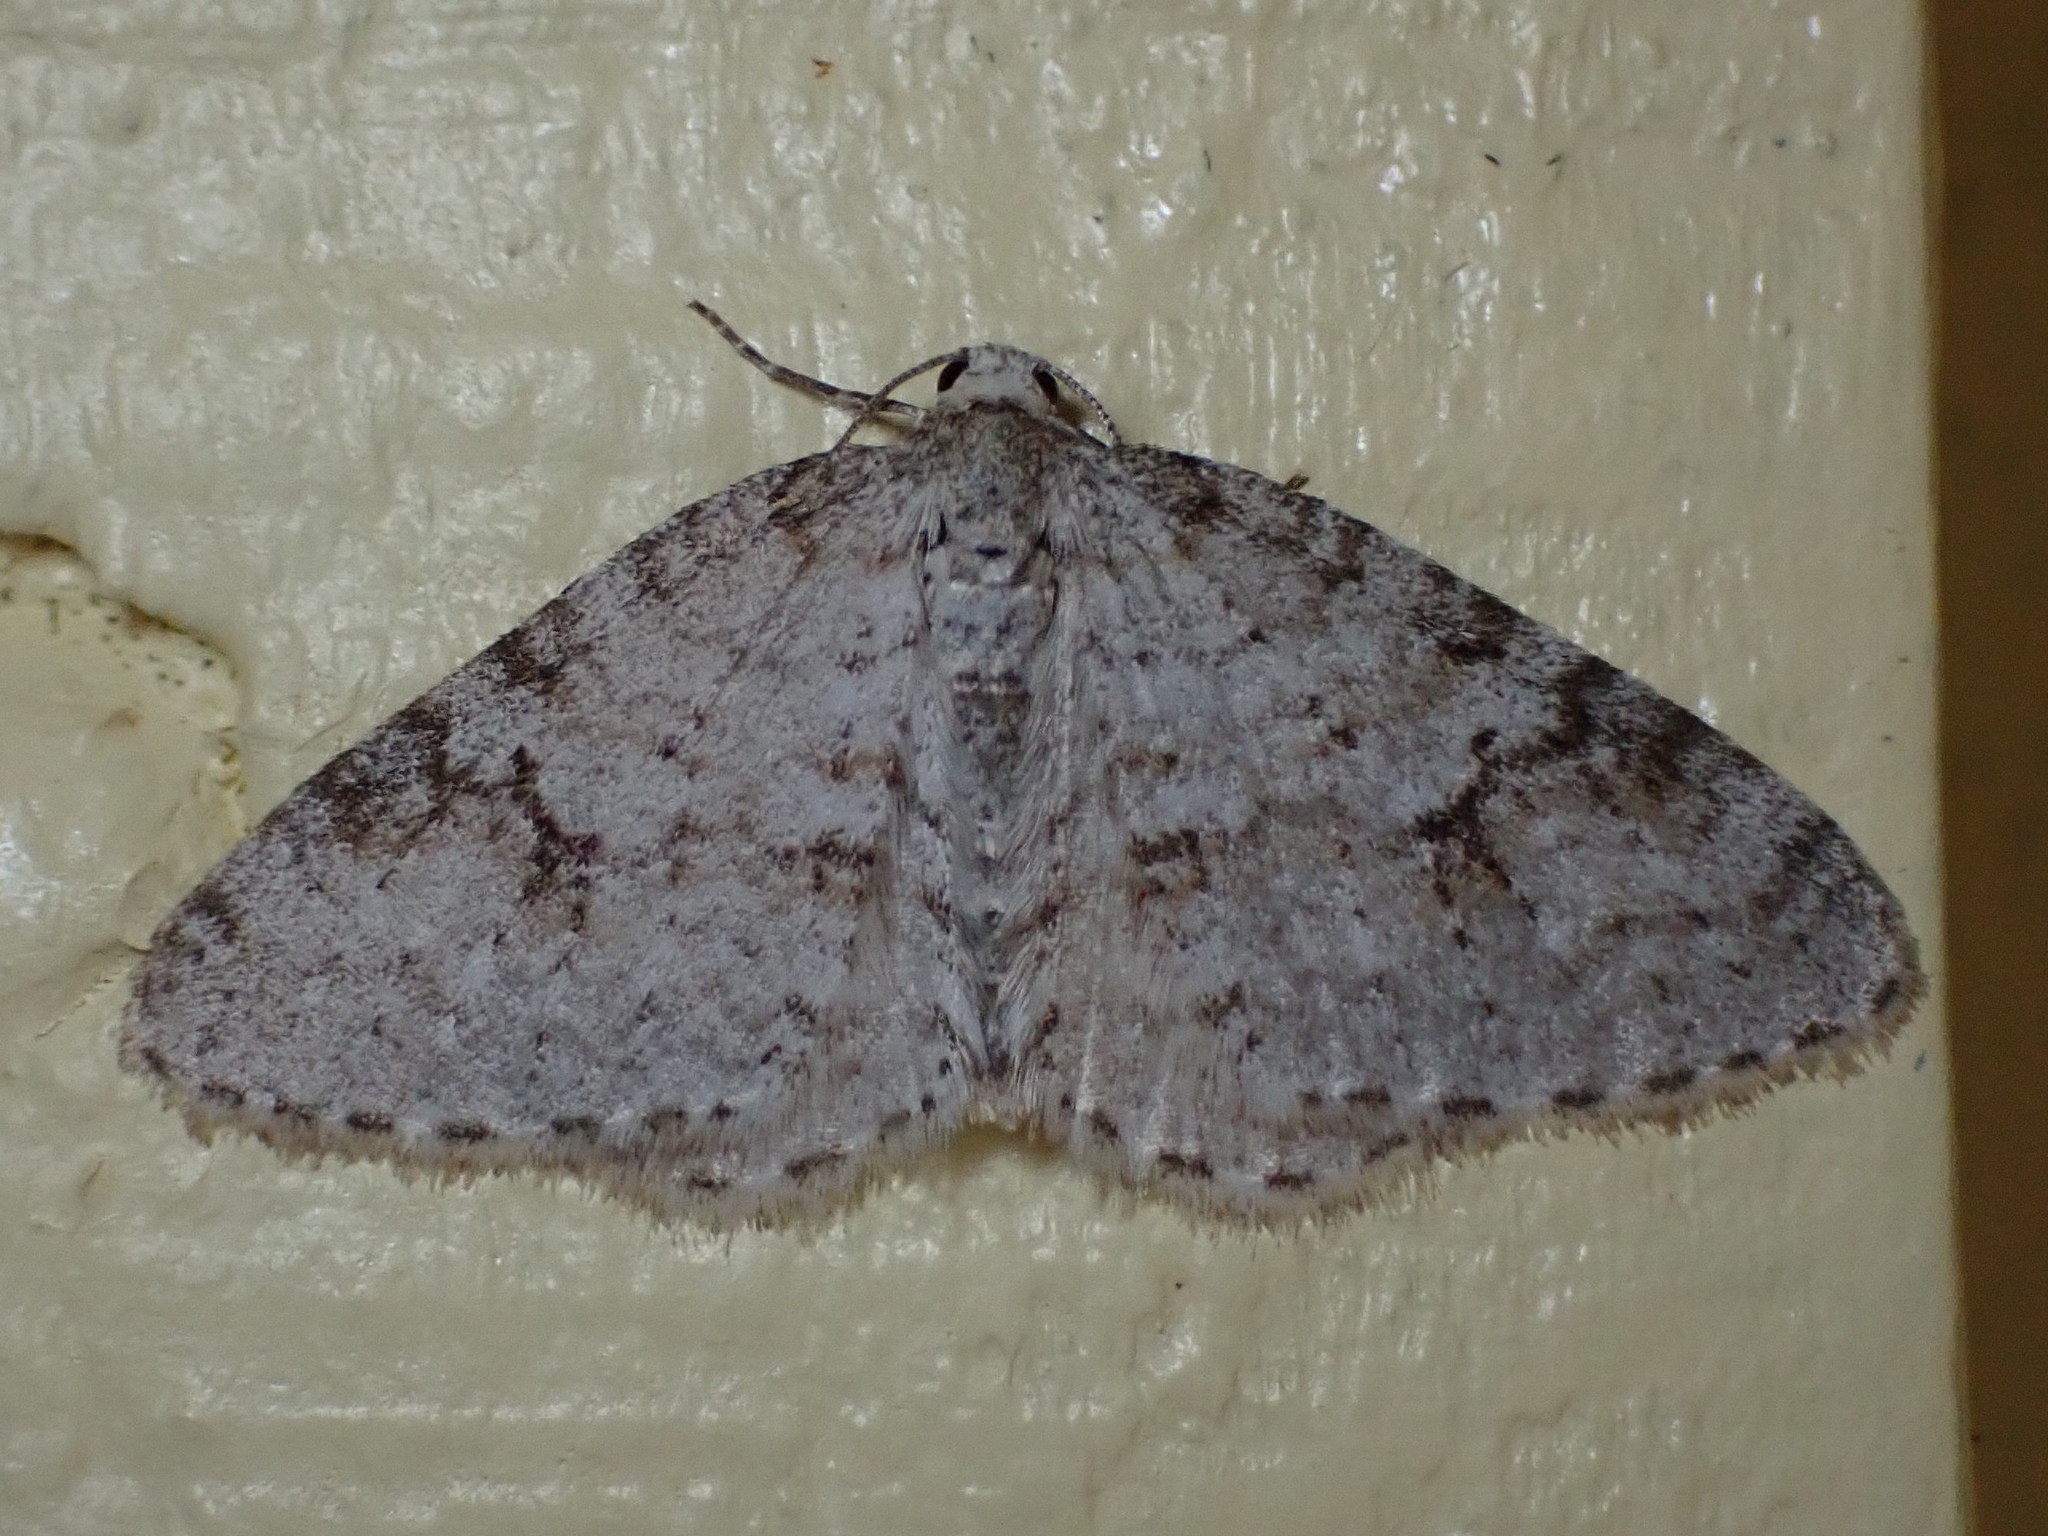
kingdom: Animalia
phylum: Arthropoda
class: Insecta
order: Lepidoptera
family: Geometridae
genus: Venusia
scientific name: Venusia comptaria
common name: Brown-shaded carpet
